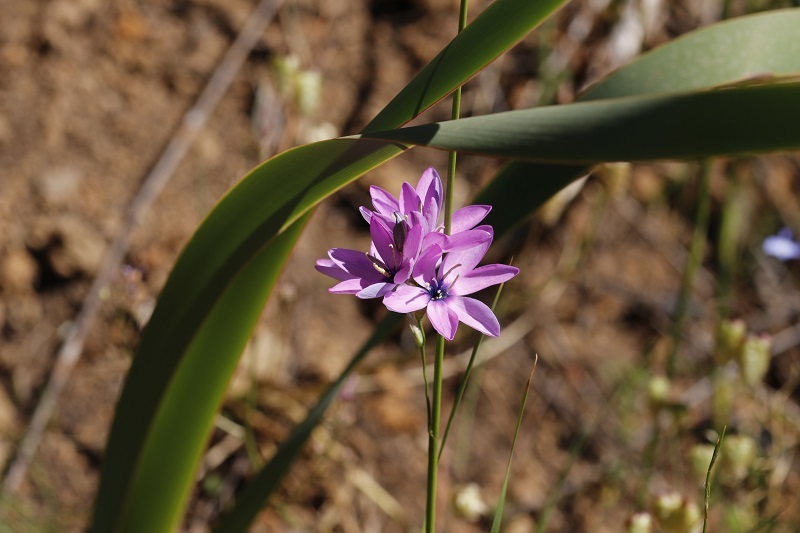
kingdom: Plantae
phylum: Tracheophyta
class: Liliopsida
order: Asparagales
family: Iridaceae
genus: Ixia
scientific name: Ixia polystachya
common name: White-and-yellow-flower cornlily
